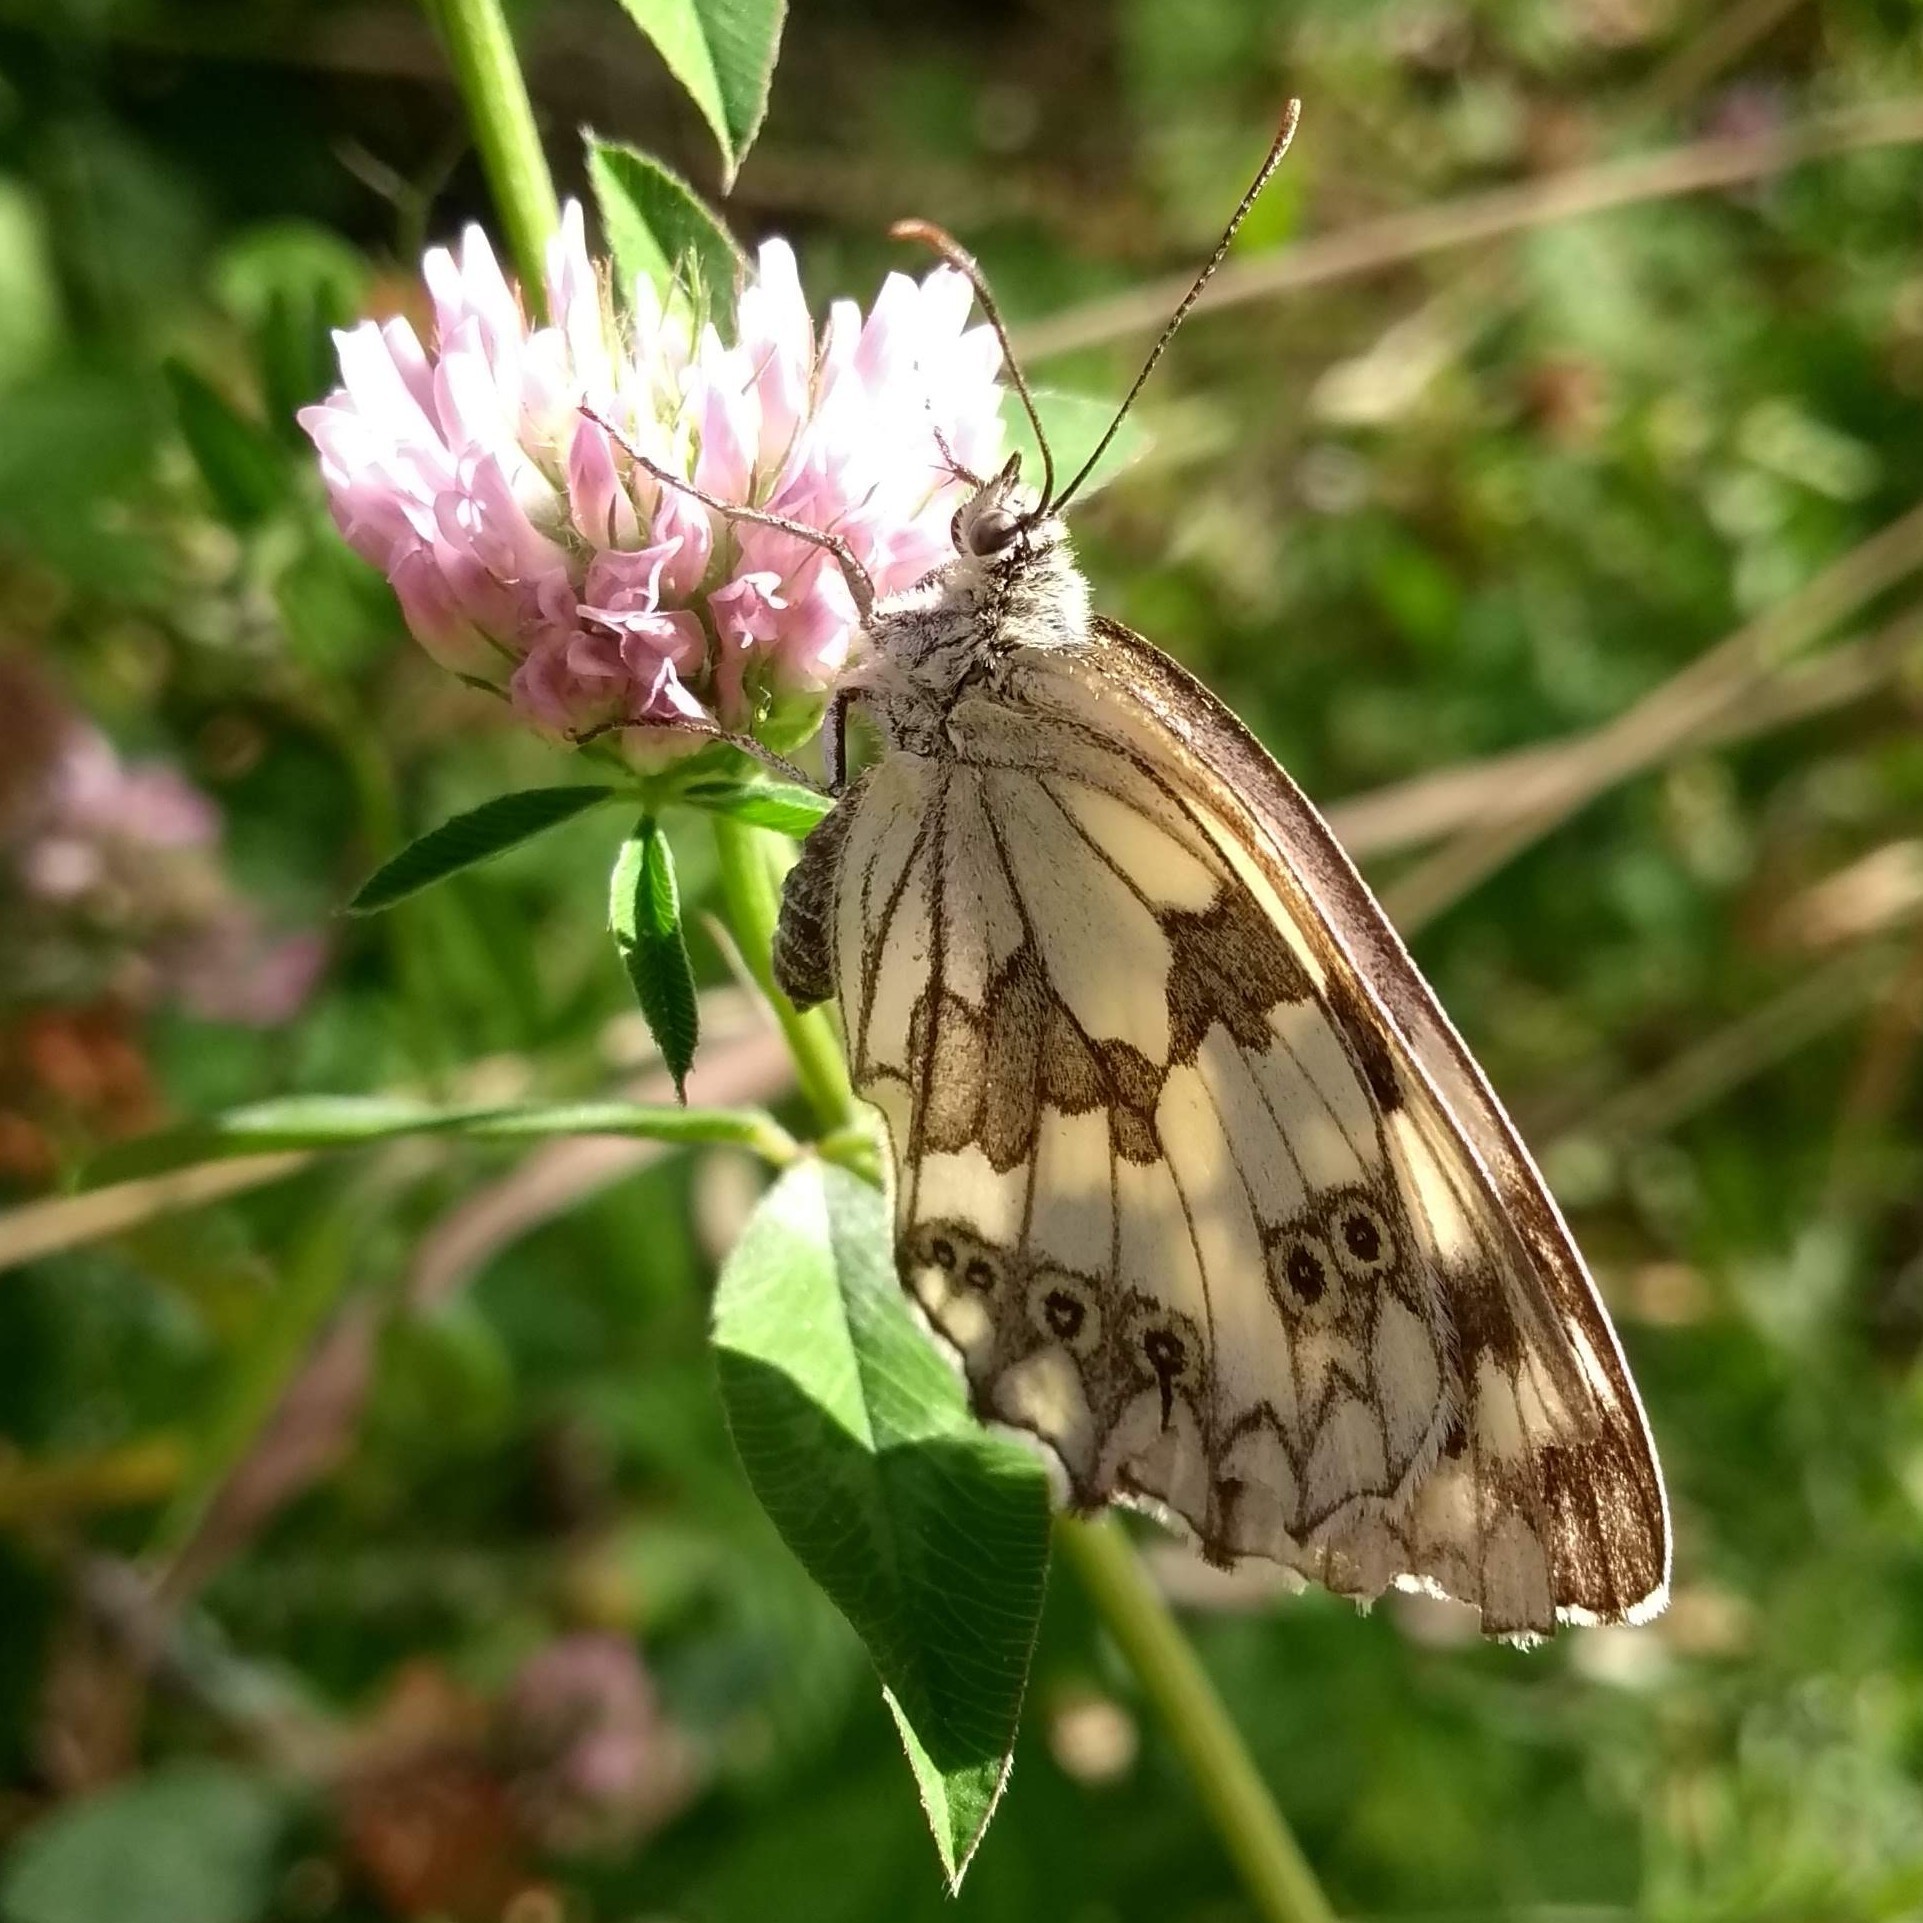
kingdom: Animalia
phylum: Arthropoda
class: Insecta
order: Lepidoptera
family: Nymphalidae
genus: Melanargia
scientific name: Melanargia lachesis
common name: Iberian marbled white
